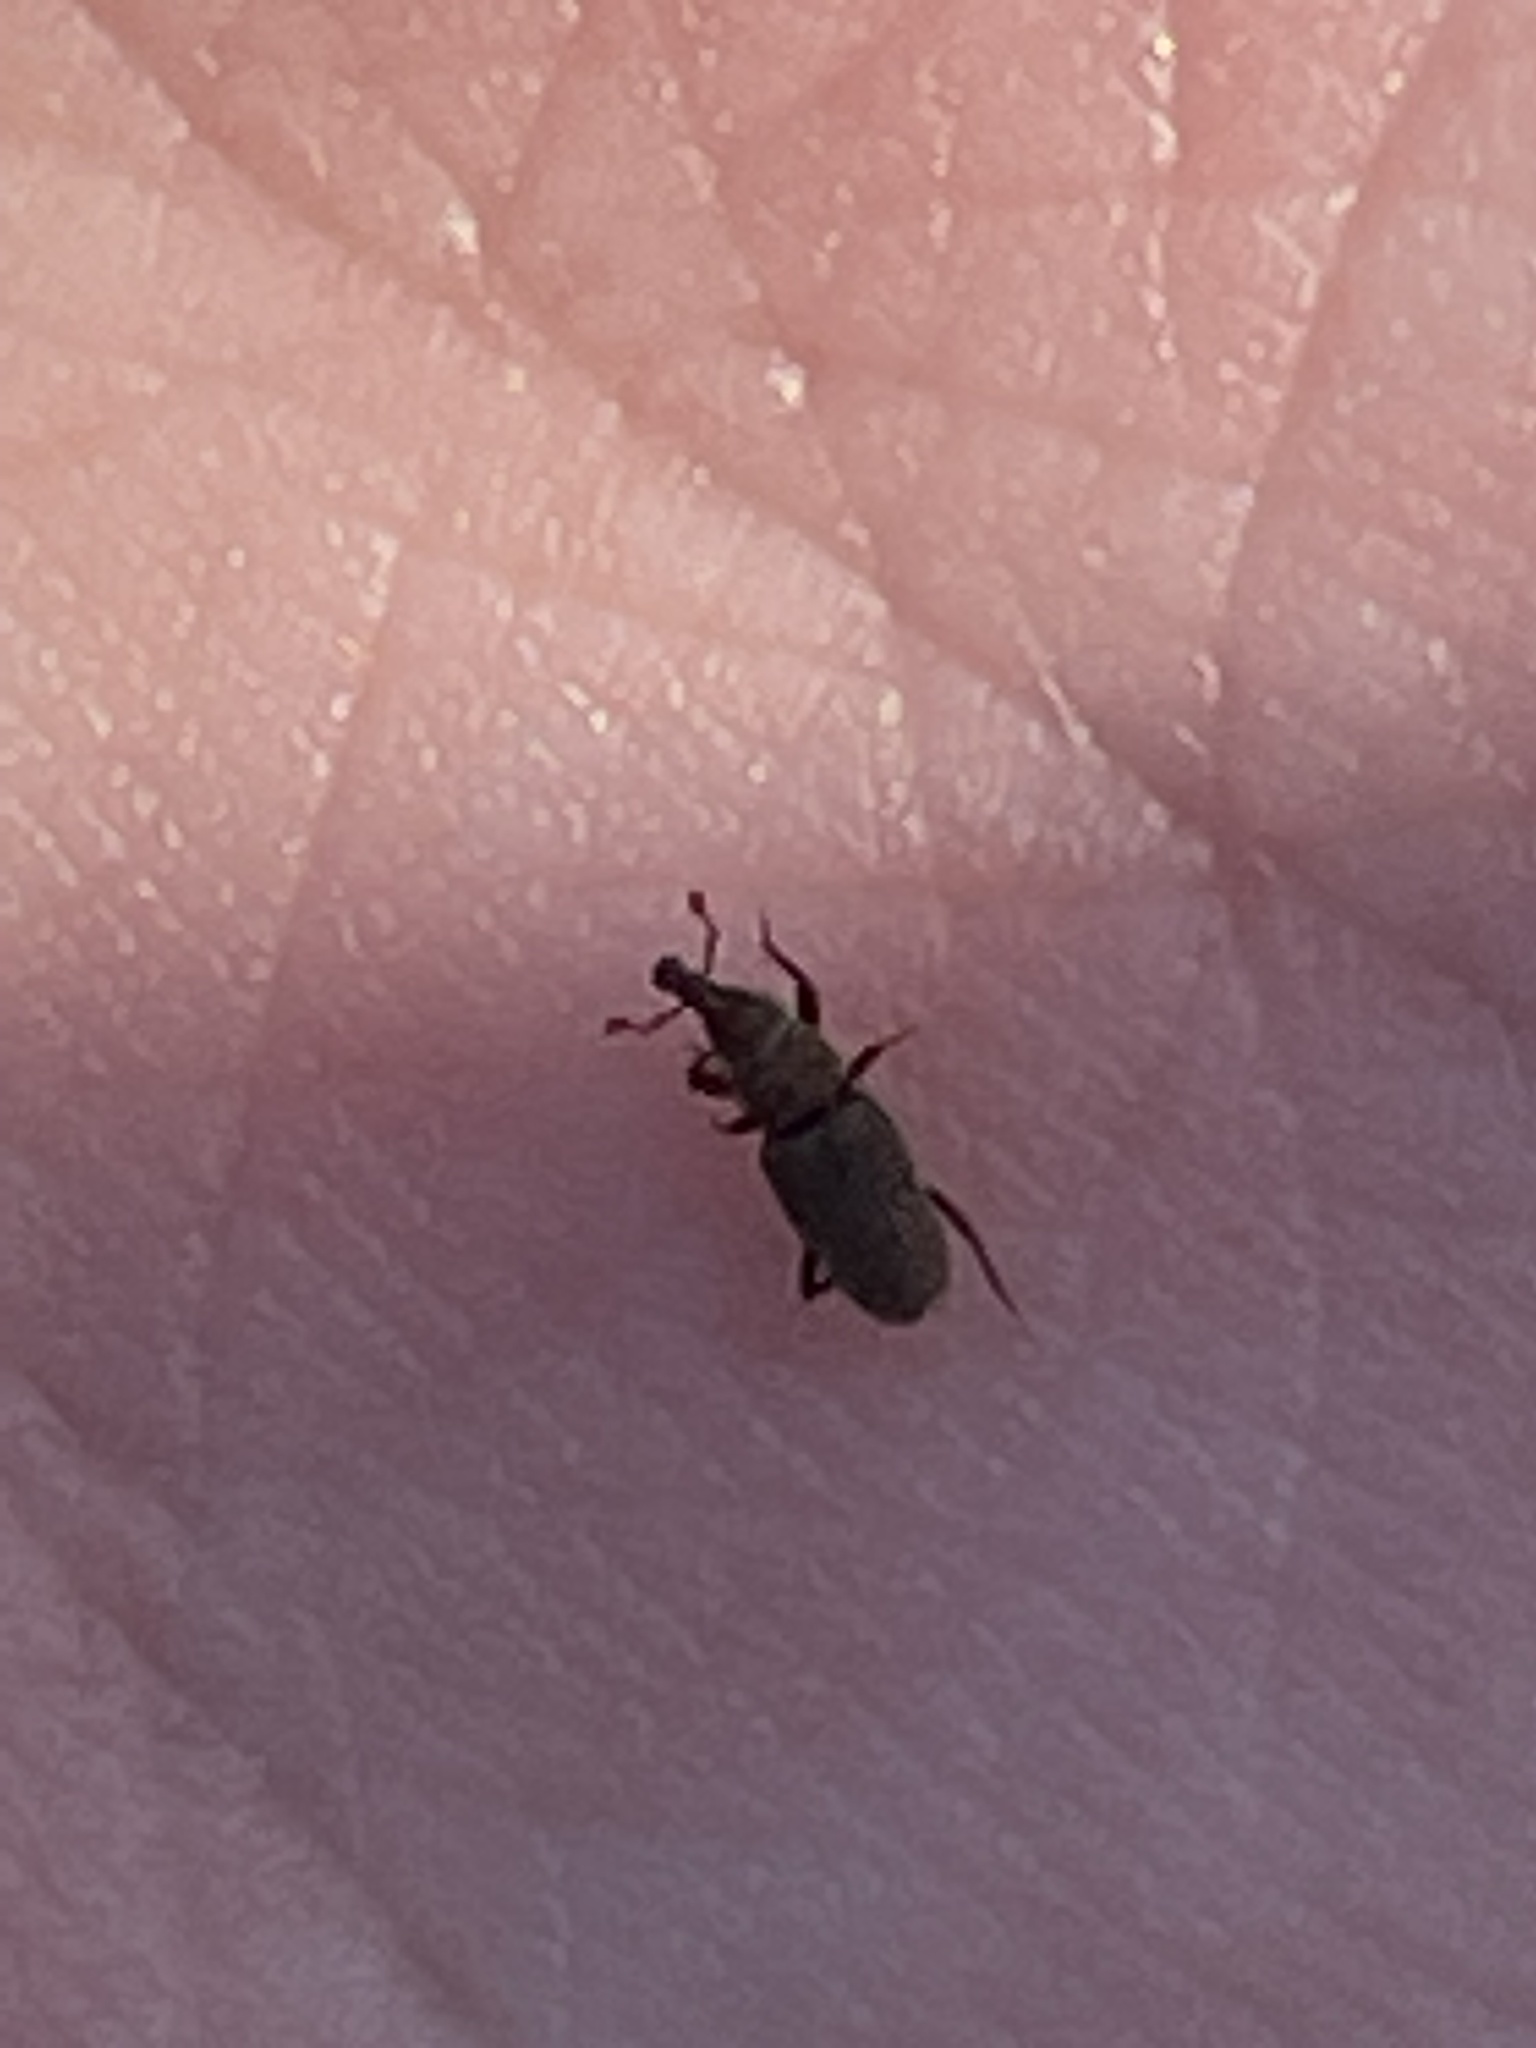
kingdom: Animalia
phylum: Arthropoda
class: Insecta
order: Coleoptera
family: Dryophthoridae
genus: Dryophthorus
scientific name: Dryophthorus americanus
